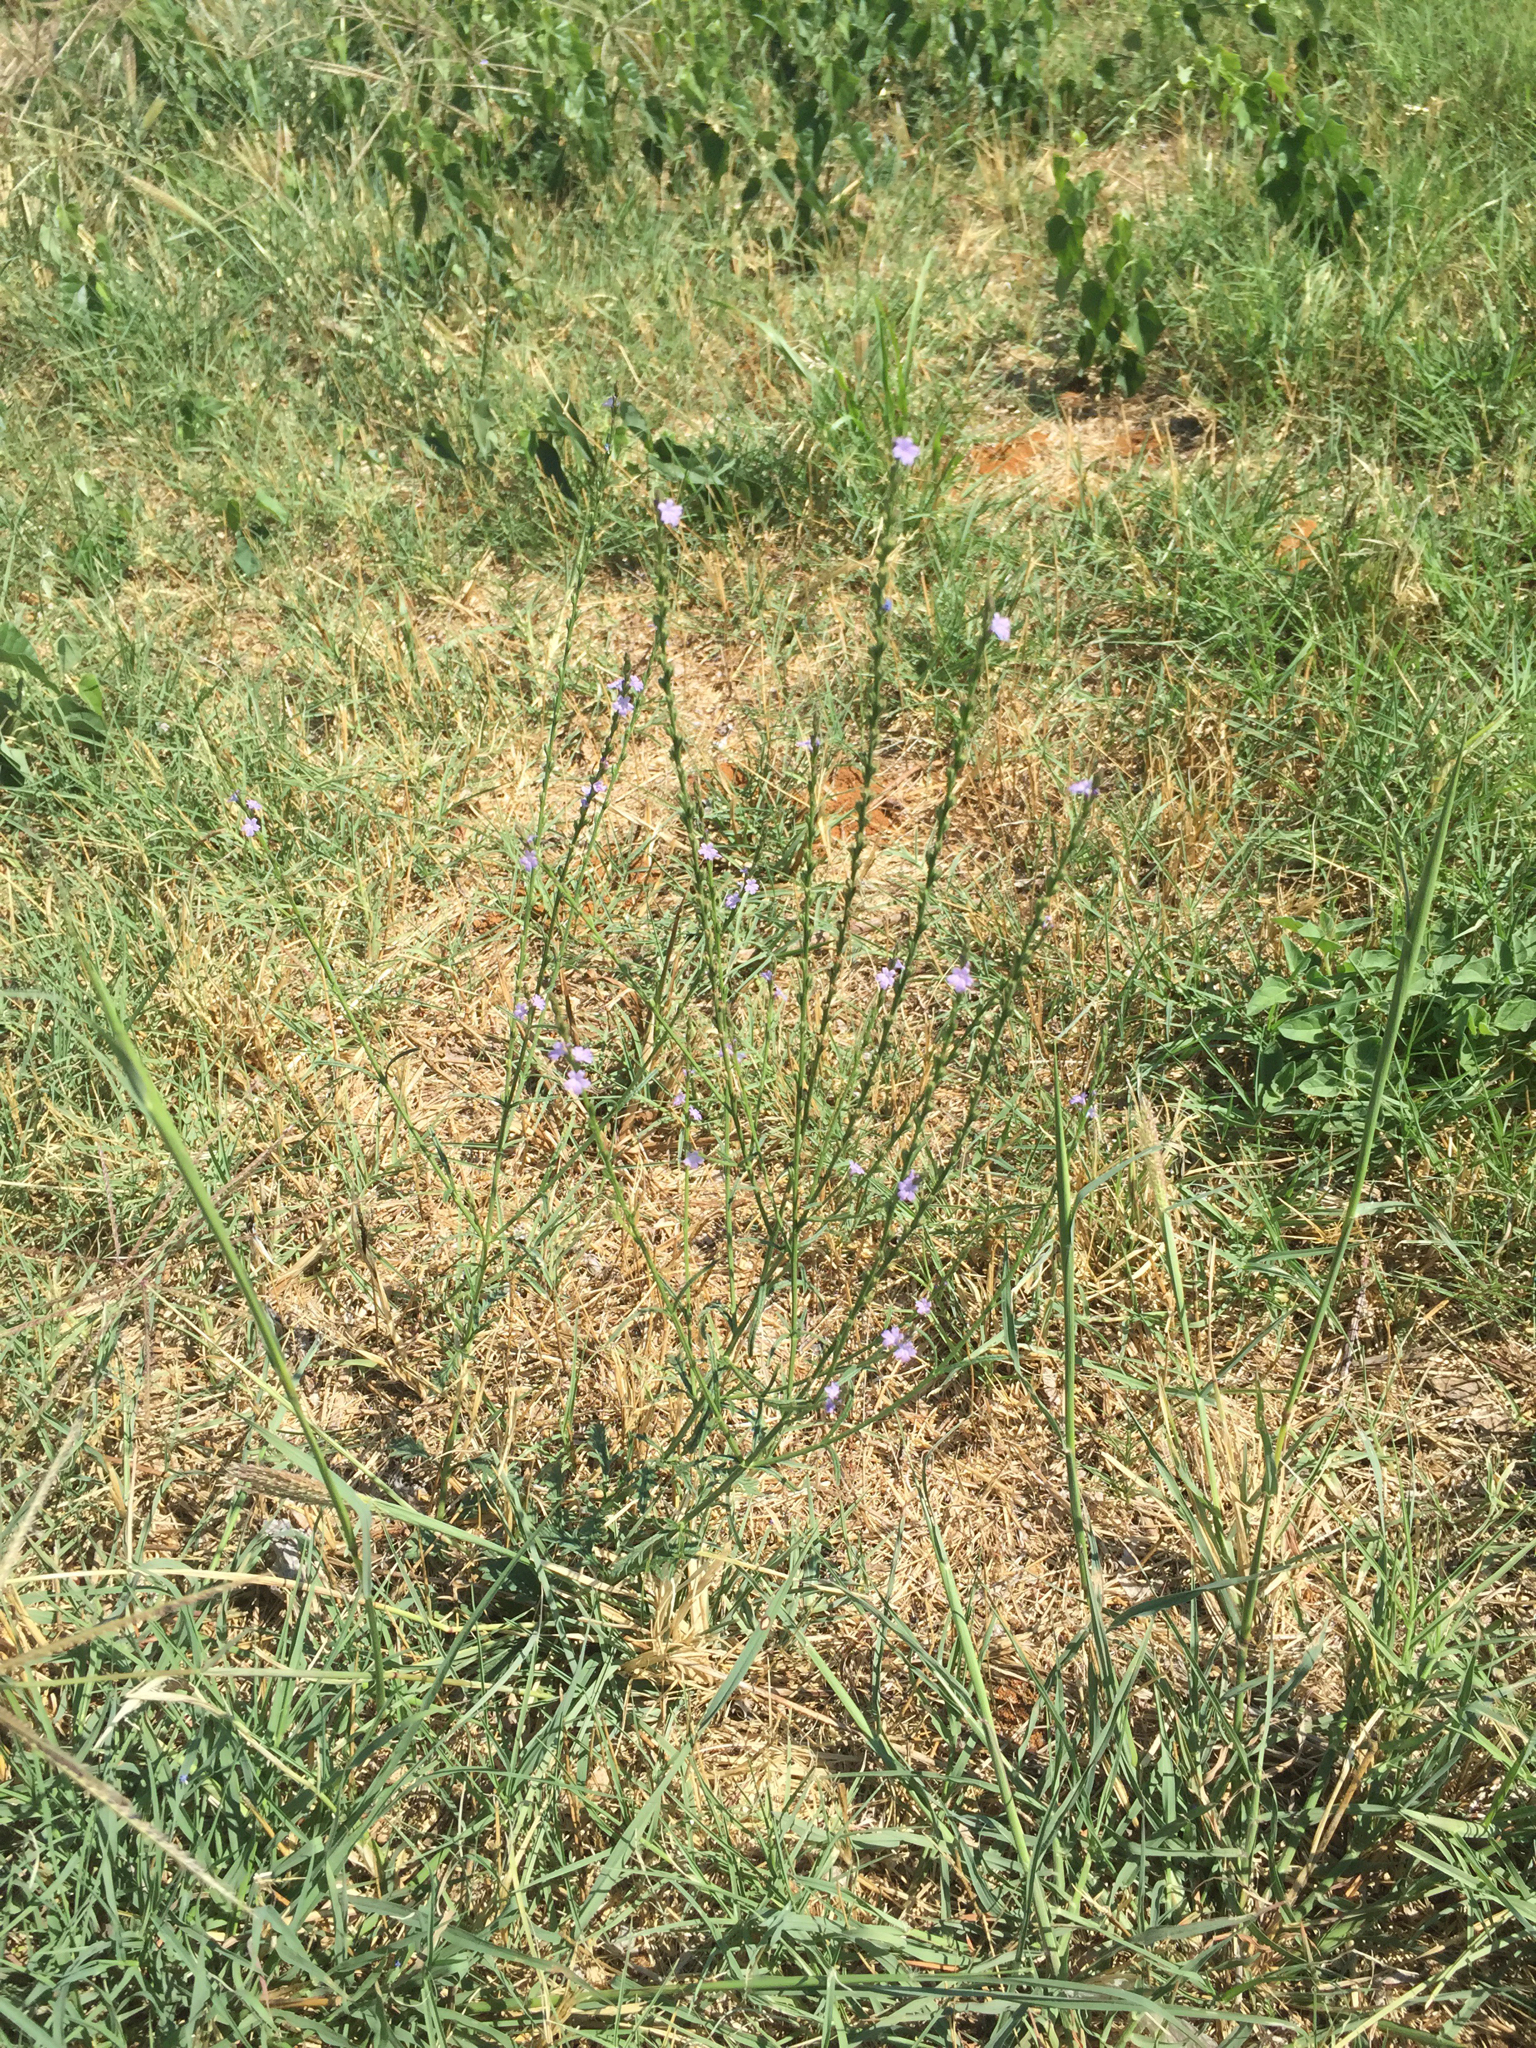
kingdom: Plantae
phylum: Tracheophyta
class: Magnoliopsida
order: Lamiales
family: Verbenaceae
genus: Verbena
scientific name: Verbena halei
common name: Texas vervain
